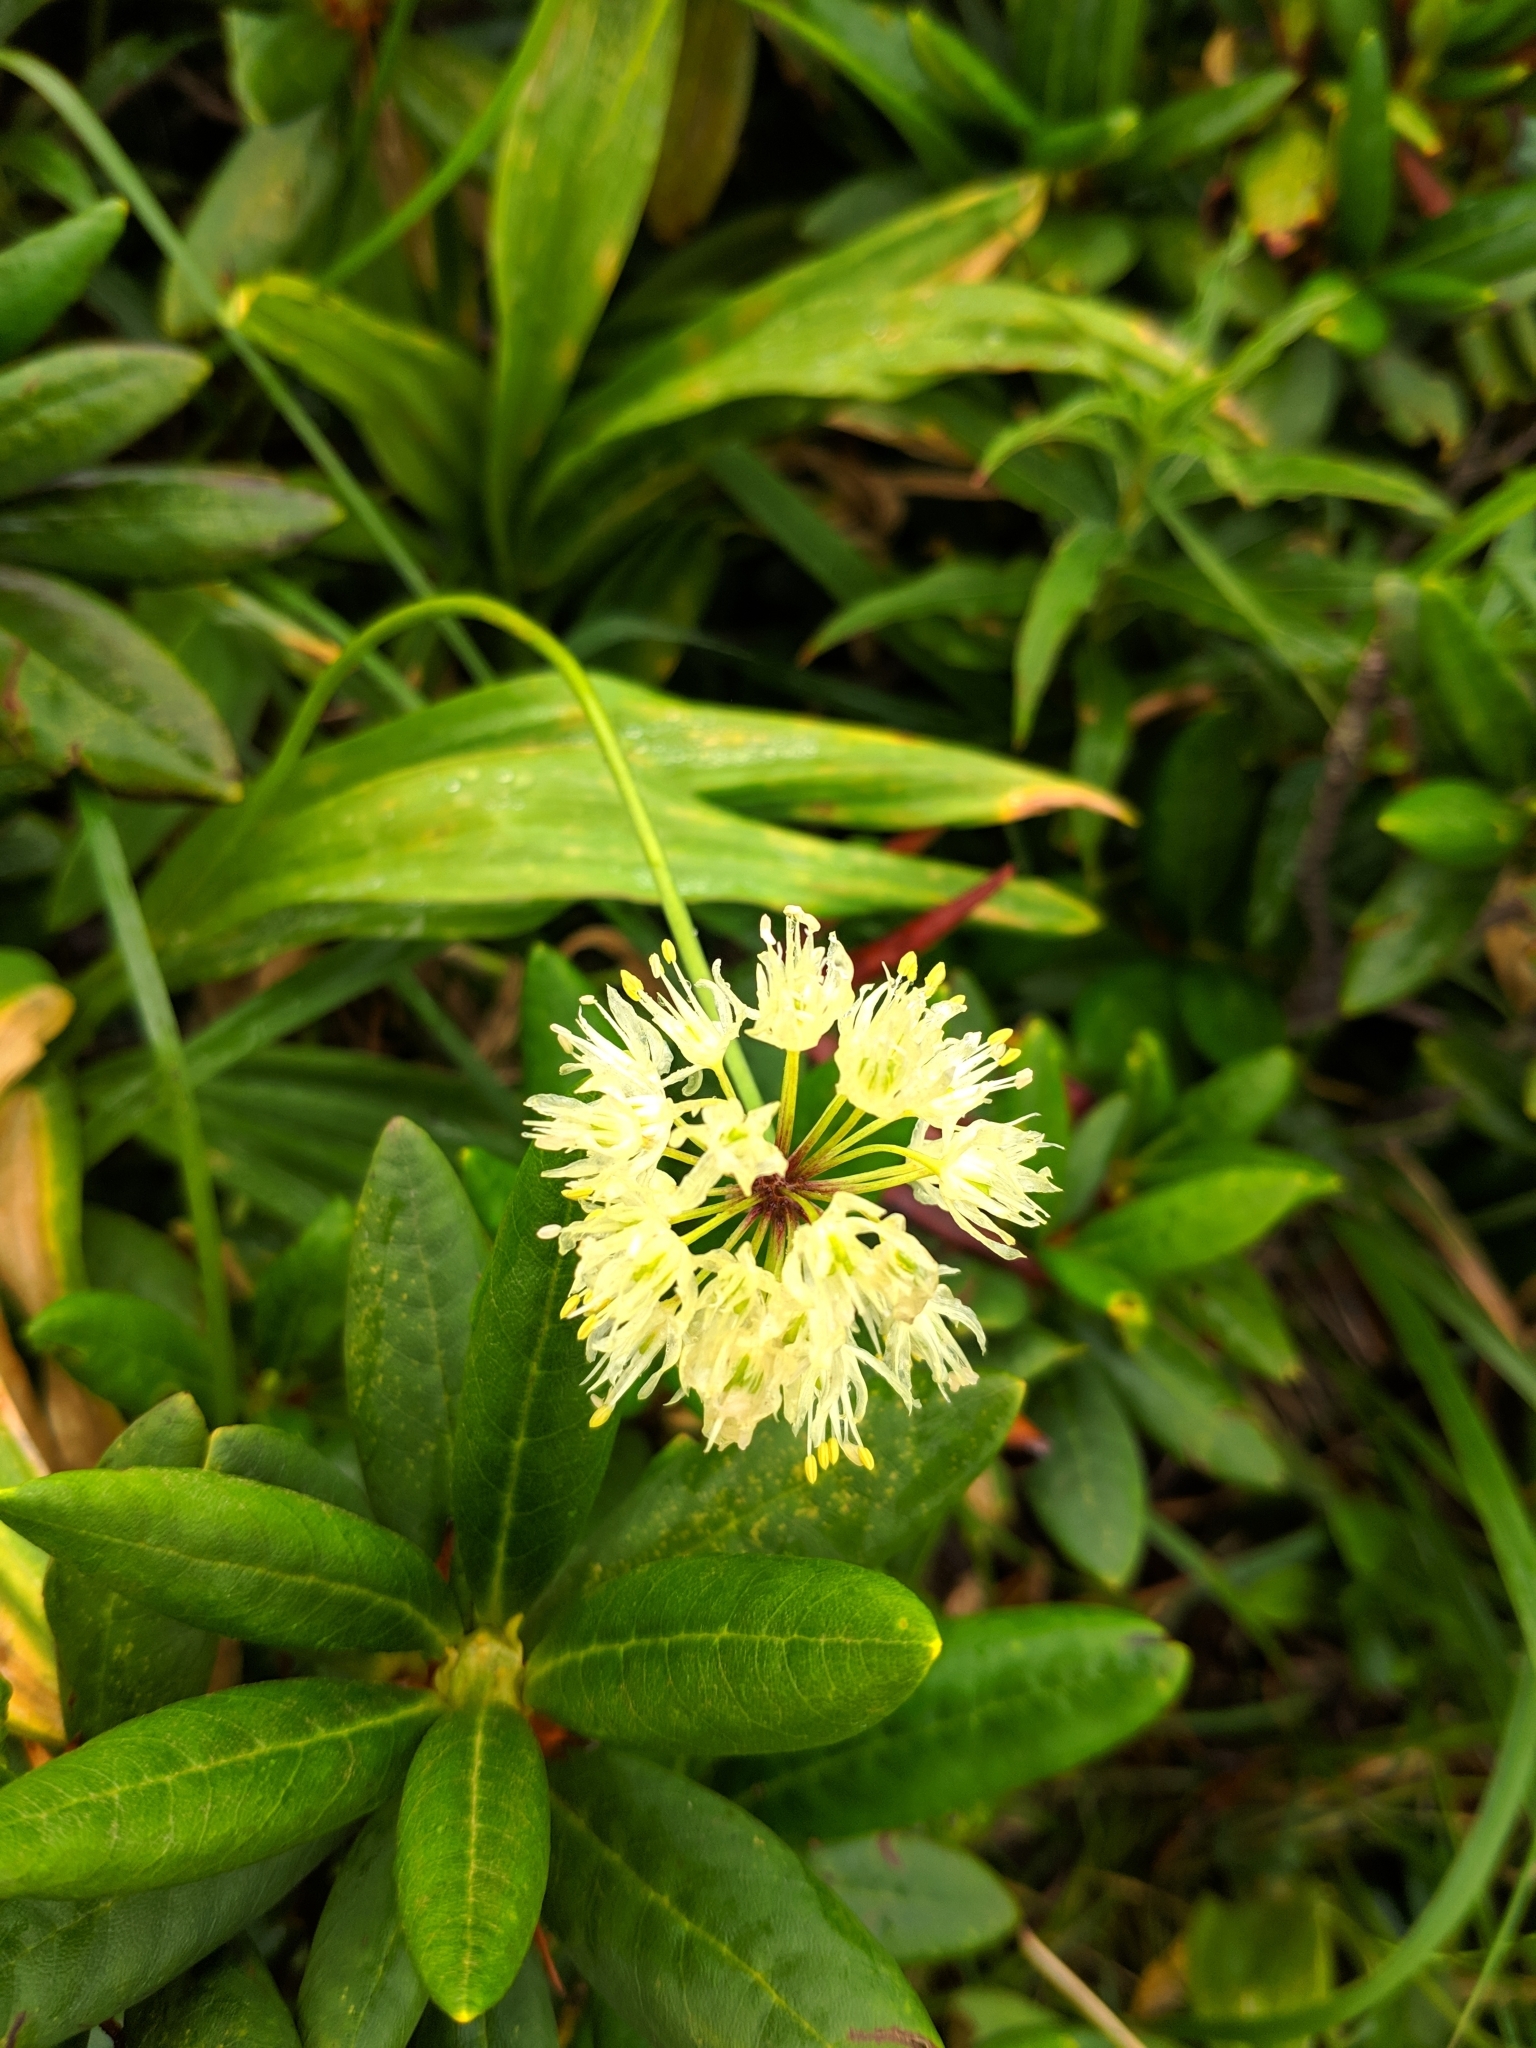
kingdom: Plantae
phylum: Tracheophyta
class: Liliopsida
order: Asparagales
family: Amaryllidaceae
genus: Allium
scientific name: Allium victorialis
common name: Alpine leek
